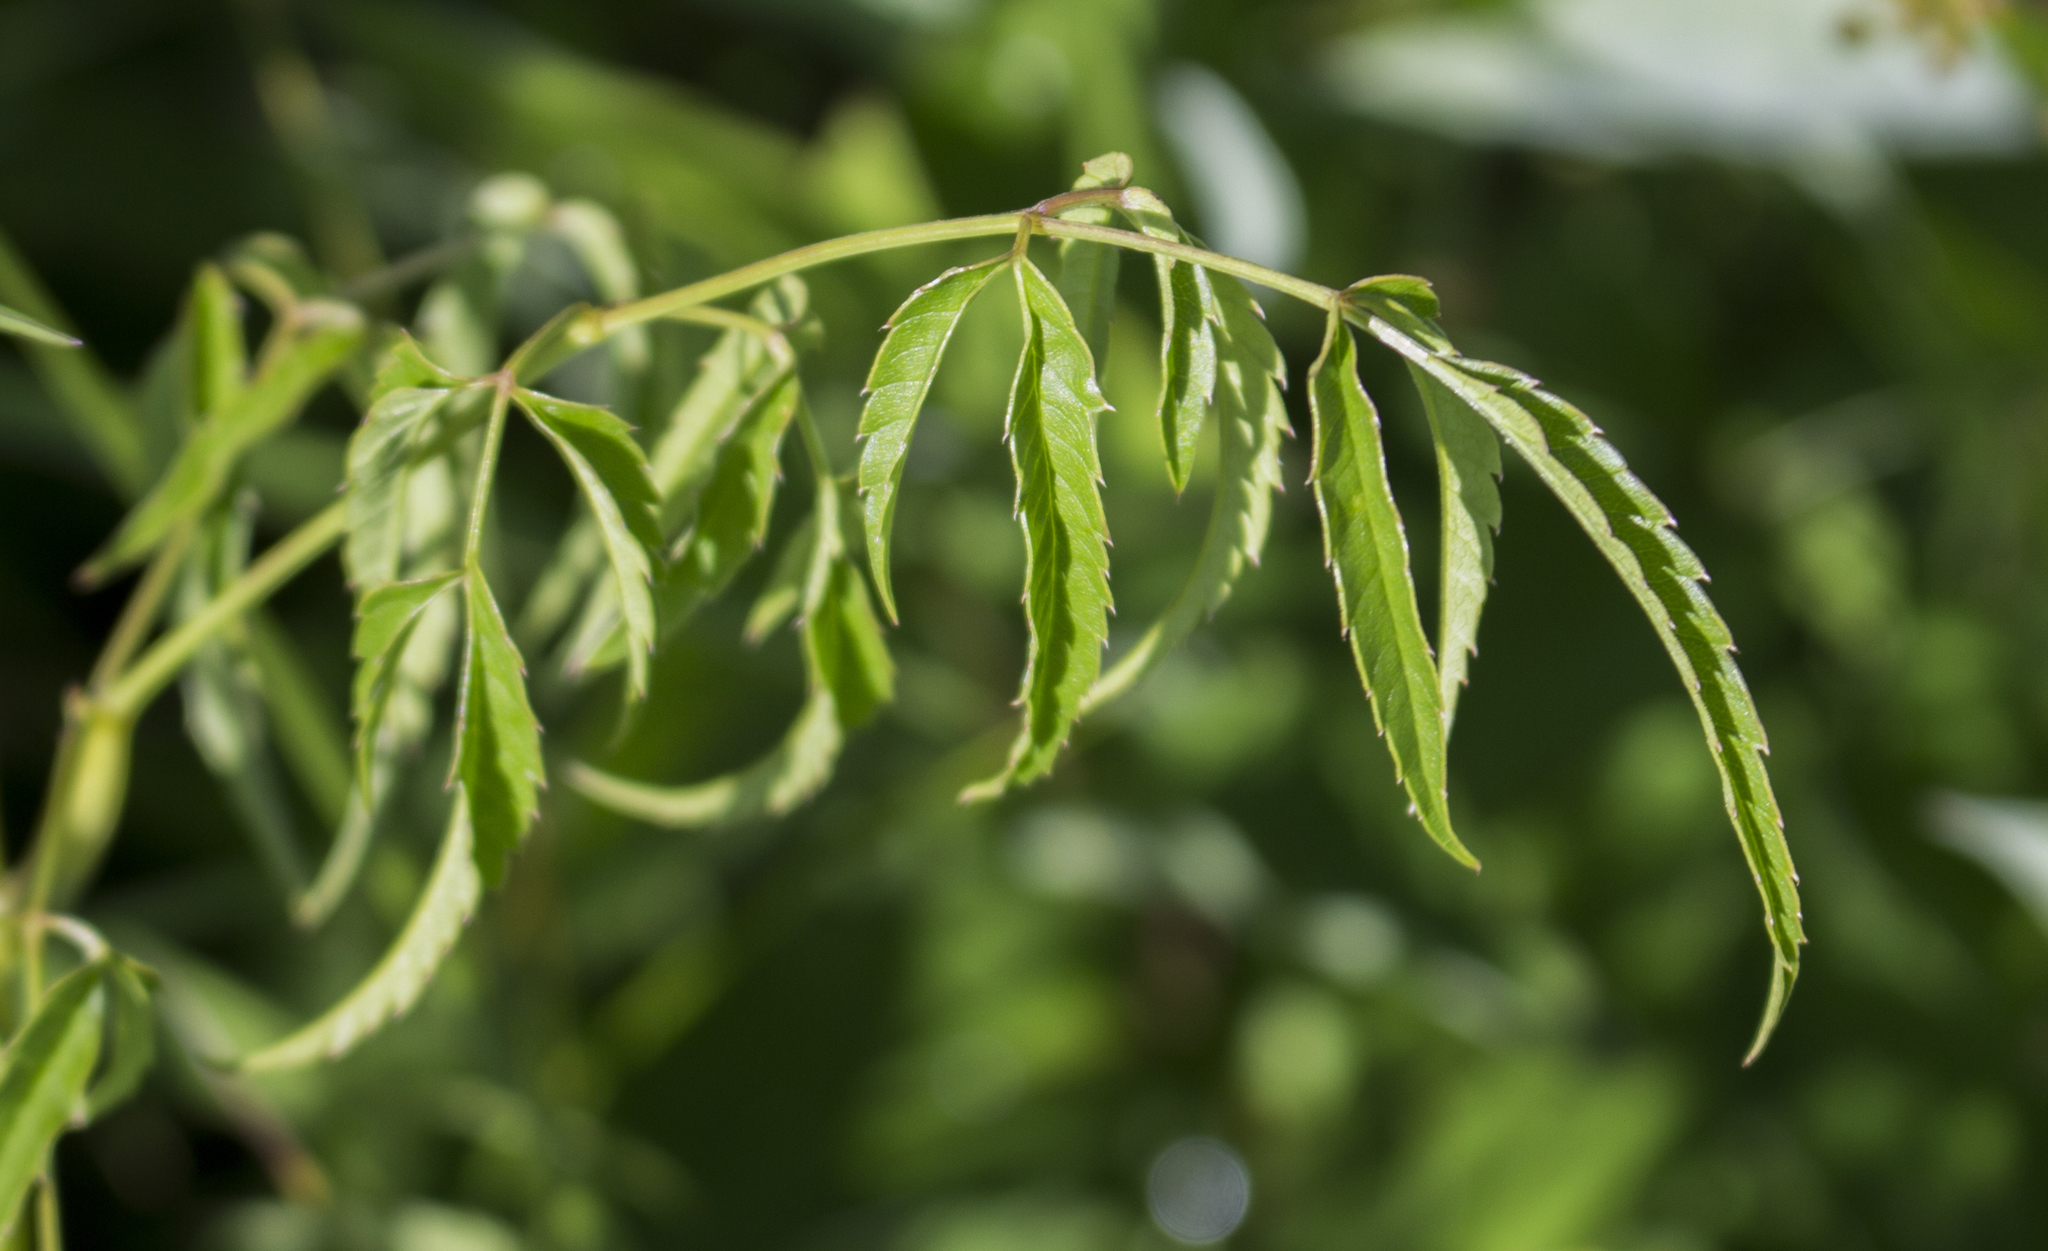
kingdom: Plantae
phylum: Tracheophyta
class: Magnoliopsida
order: Apiales
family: Apiaceae
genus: Cicuta
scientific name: Cicuta maculata
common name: Spotted cowbane
